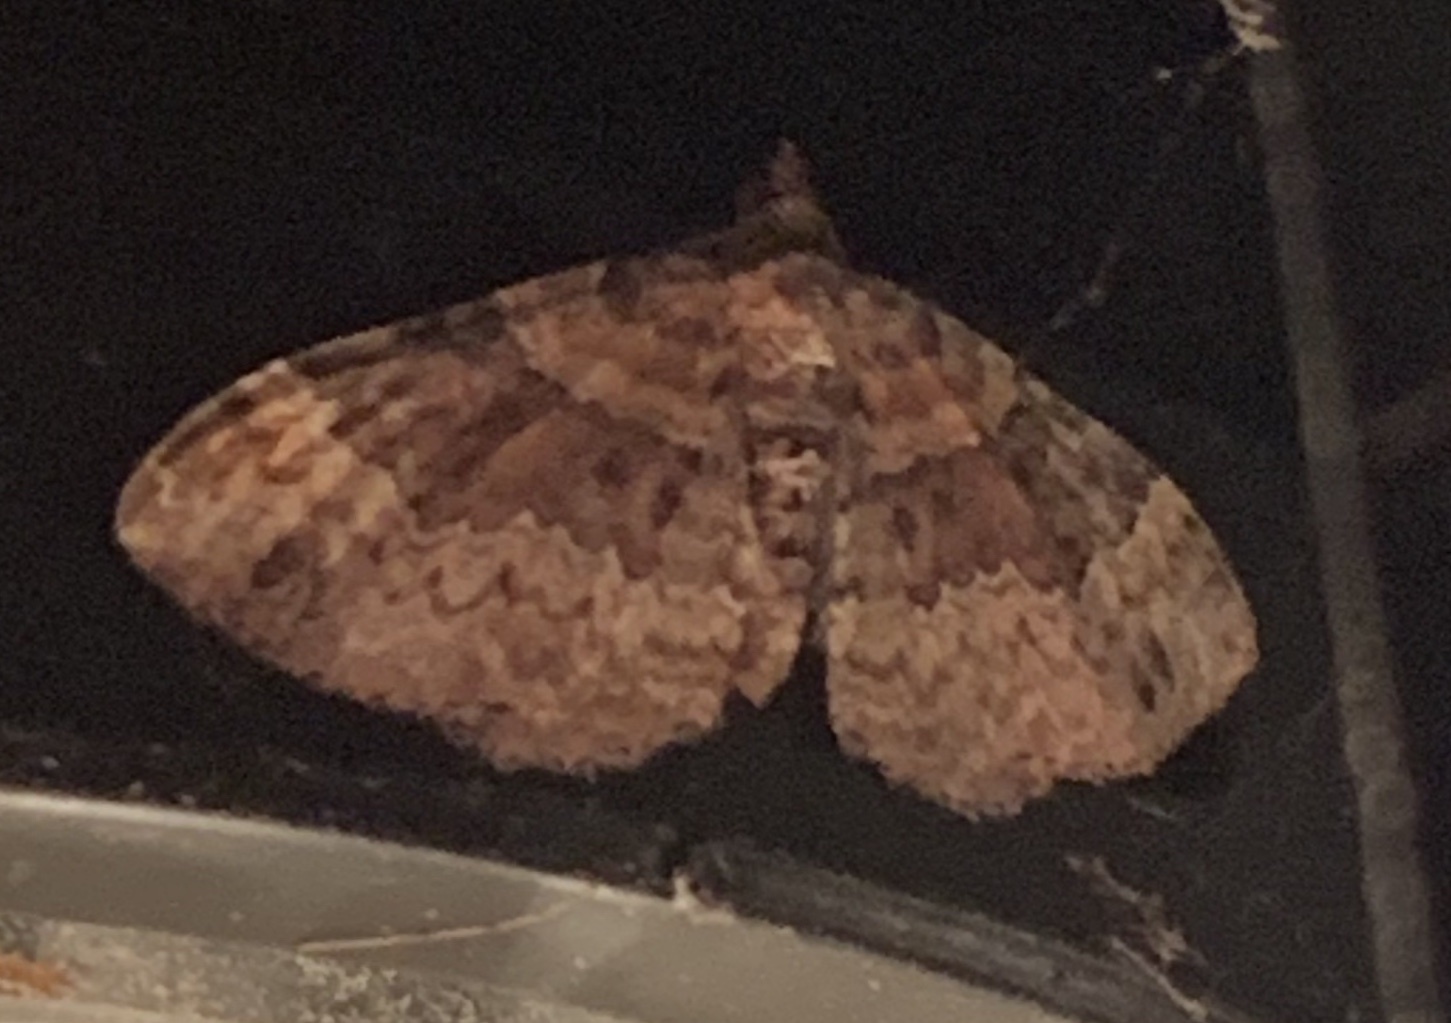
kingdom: Animalia
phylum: Arthropoda
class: Insecta
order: Lepidoptera
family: Geometridae
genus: Xanthorhoe
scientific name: Xanthorhoe ferrugata
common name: Dark-barred twin-spot carpet
